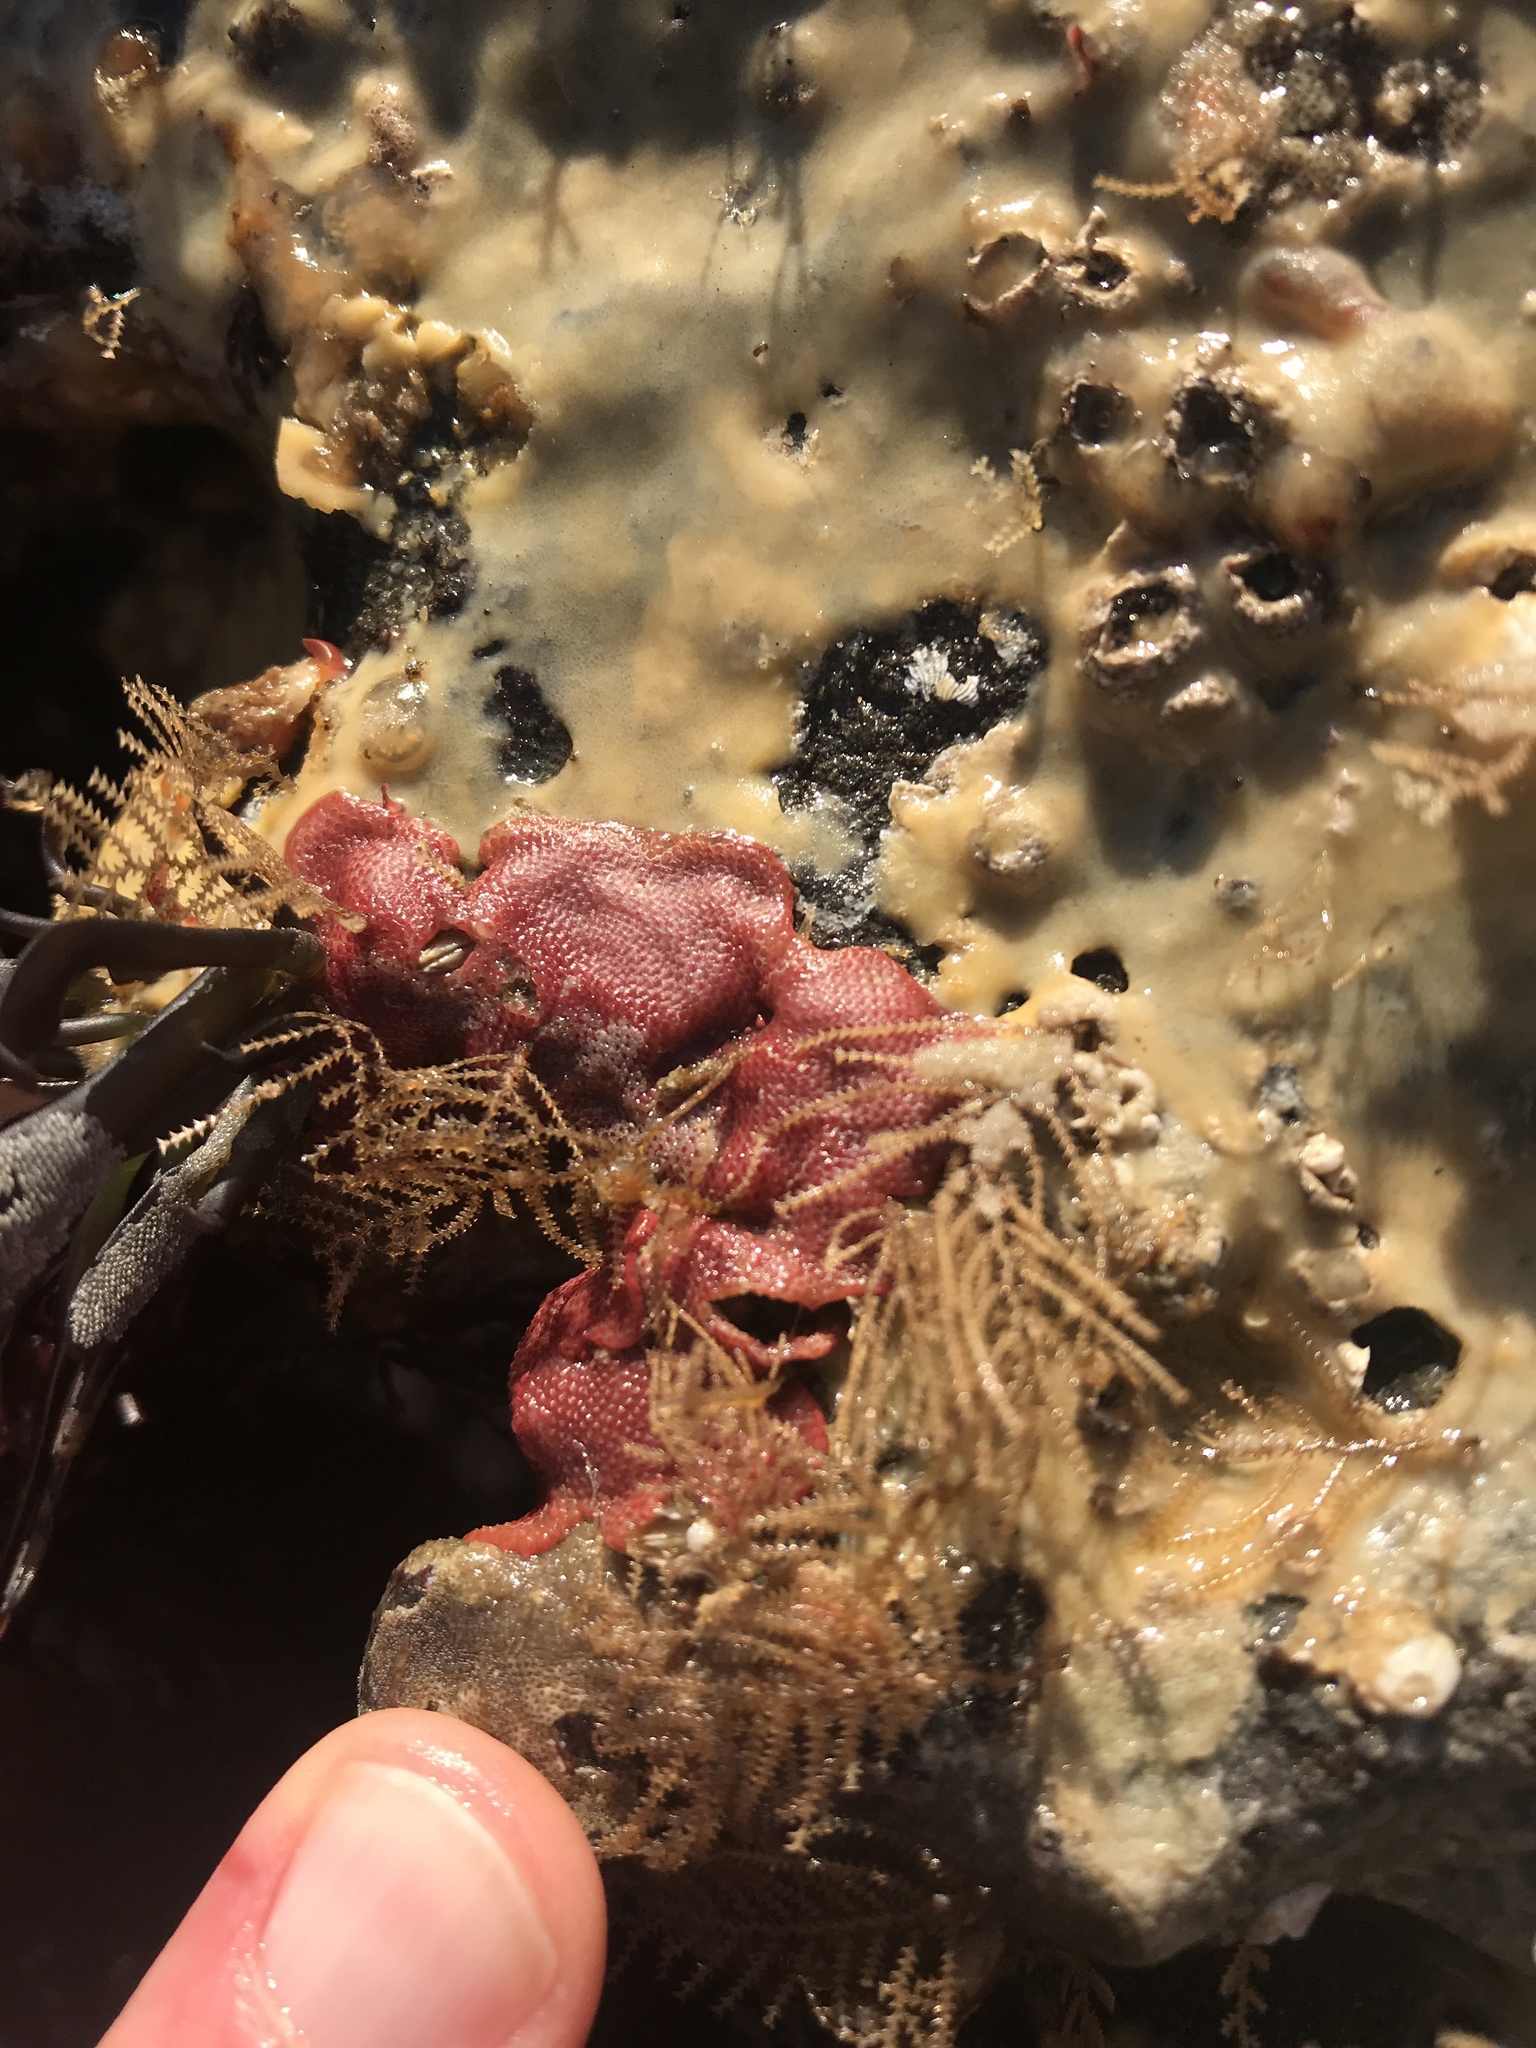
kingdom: Animalia
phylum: Bryozoa
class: Gymnolaemata
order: Cheilostomatida
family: Eurystomellidae
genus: Integripelta
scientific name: Integripelta bilabiata
